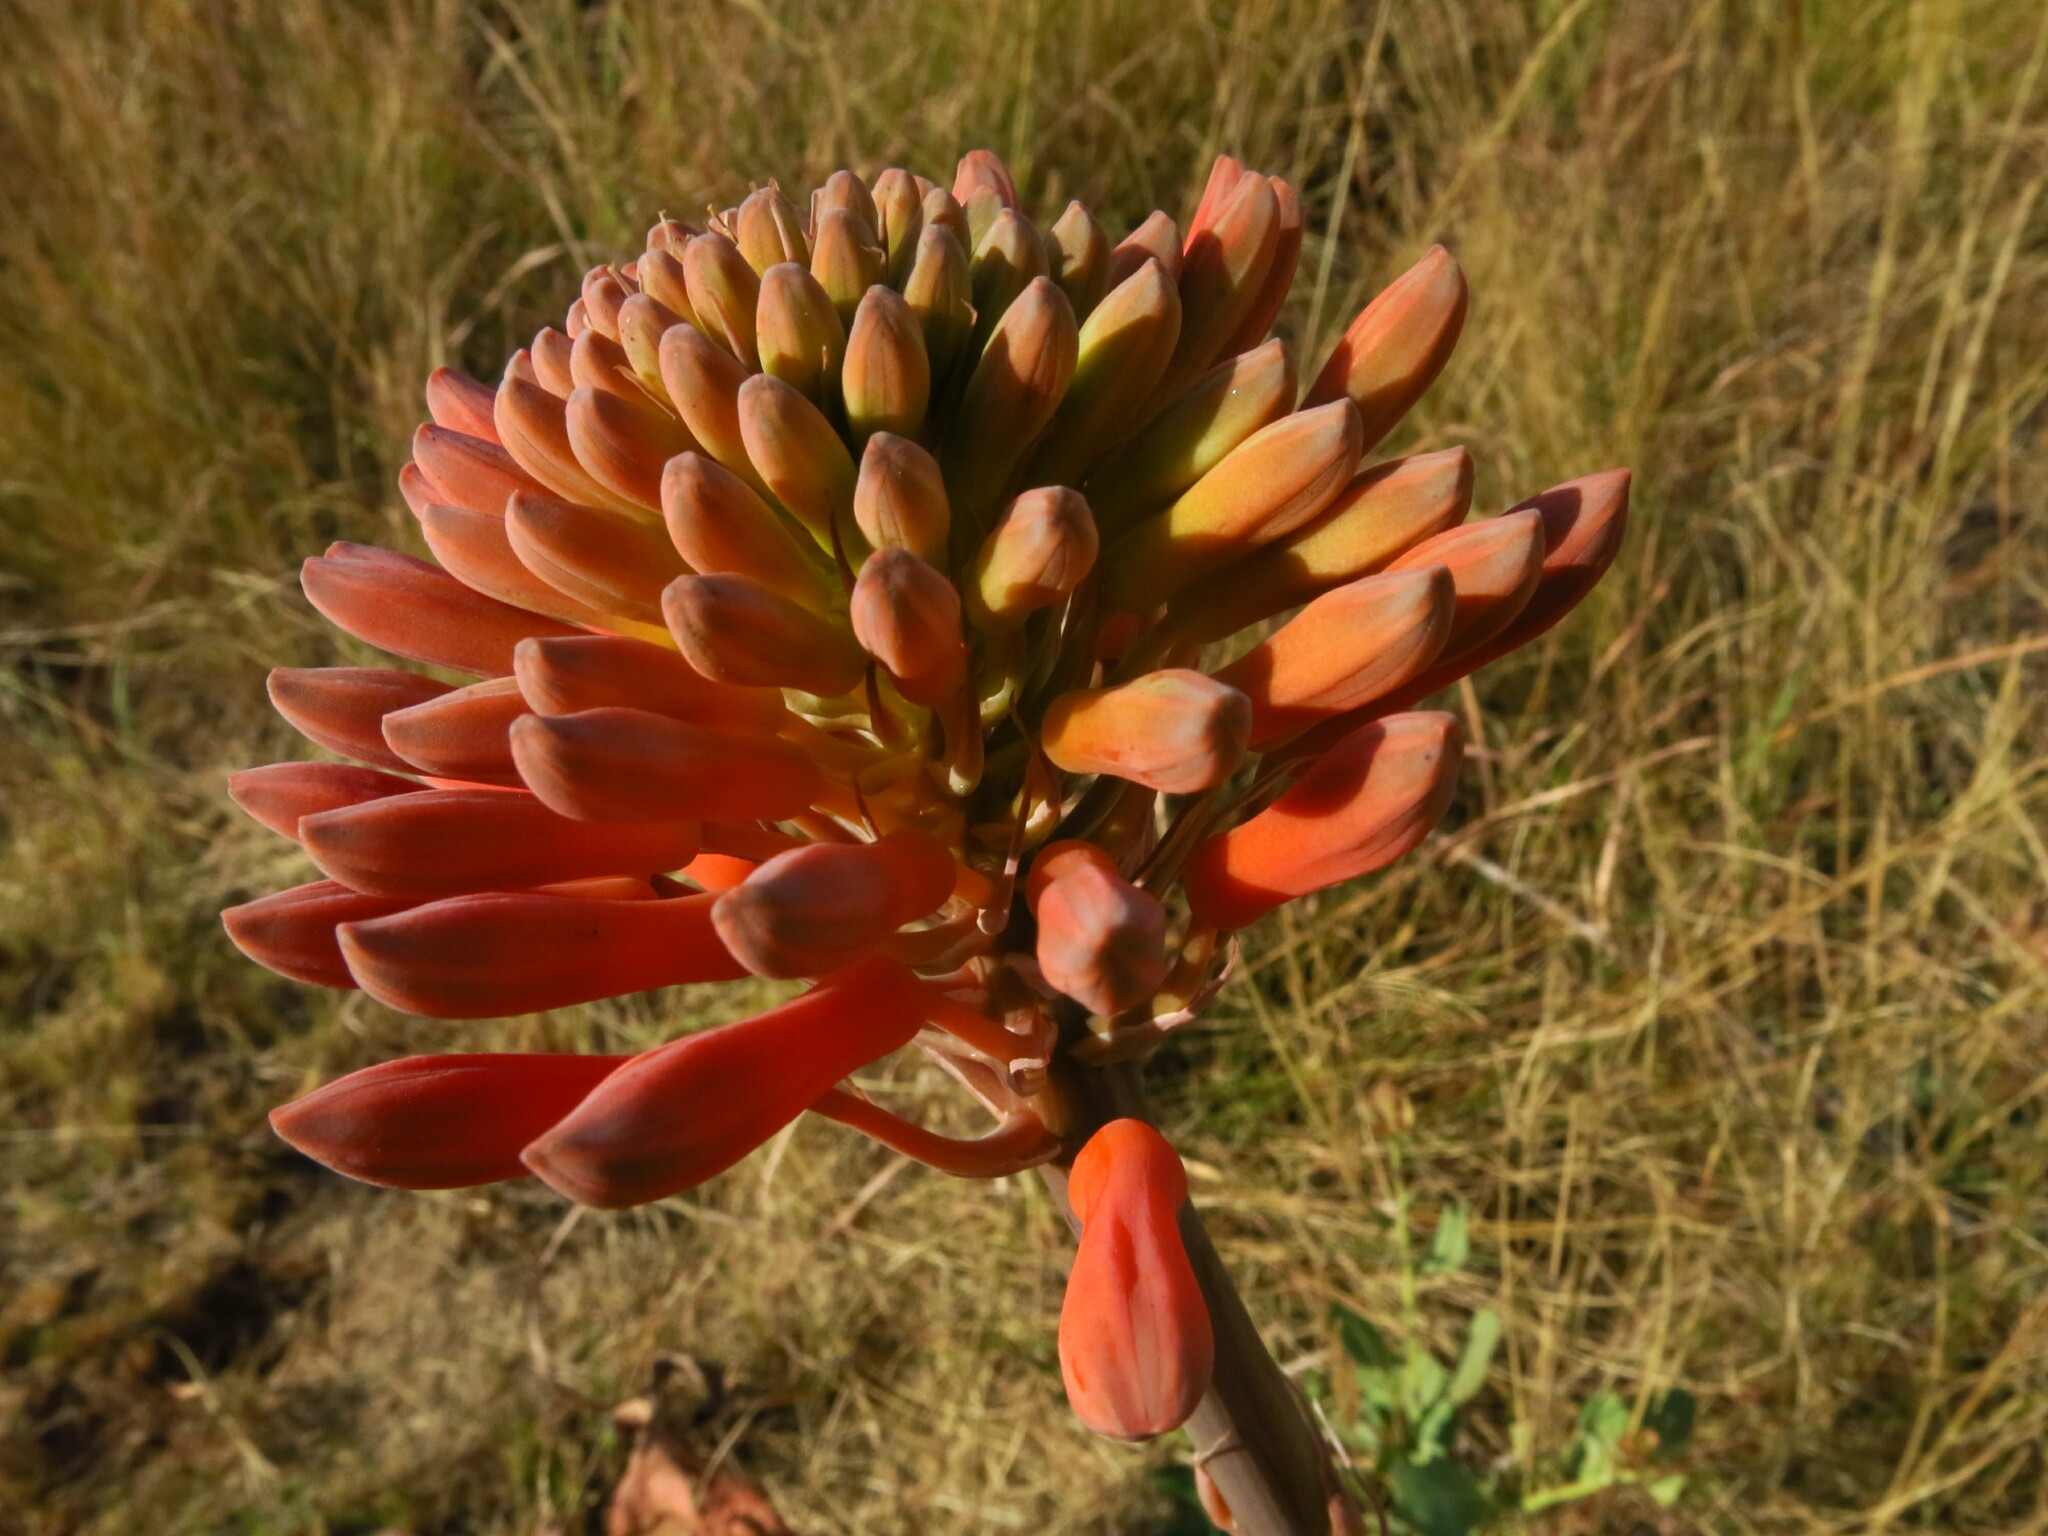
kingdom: Plantae
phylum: Tracheophyta
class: Liliopsida
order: Asparagales
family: Asphodelaceae
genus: Aloe
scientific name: Aloe maculata
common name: Broadleaf aloe
